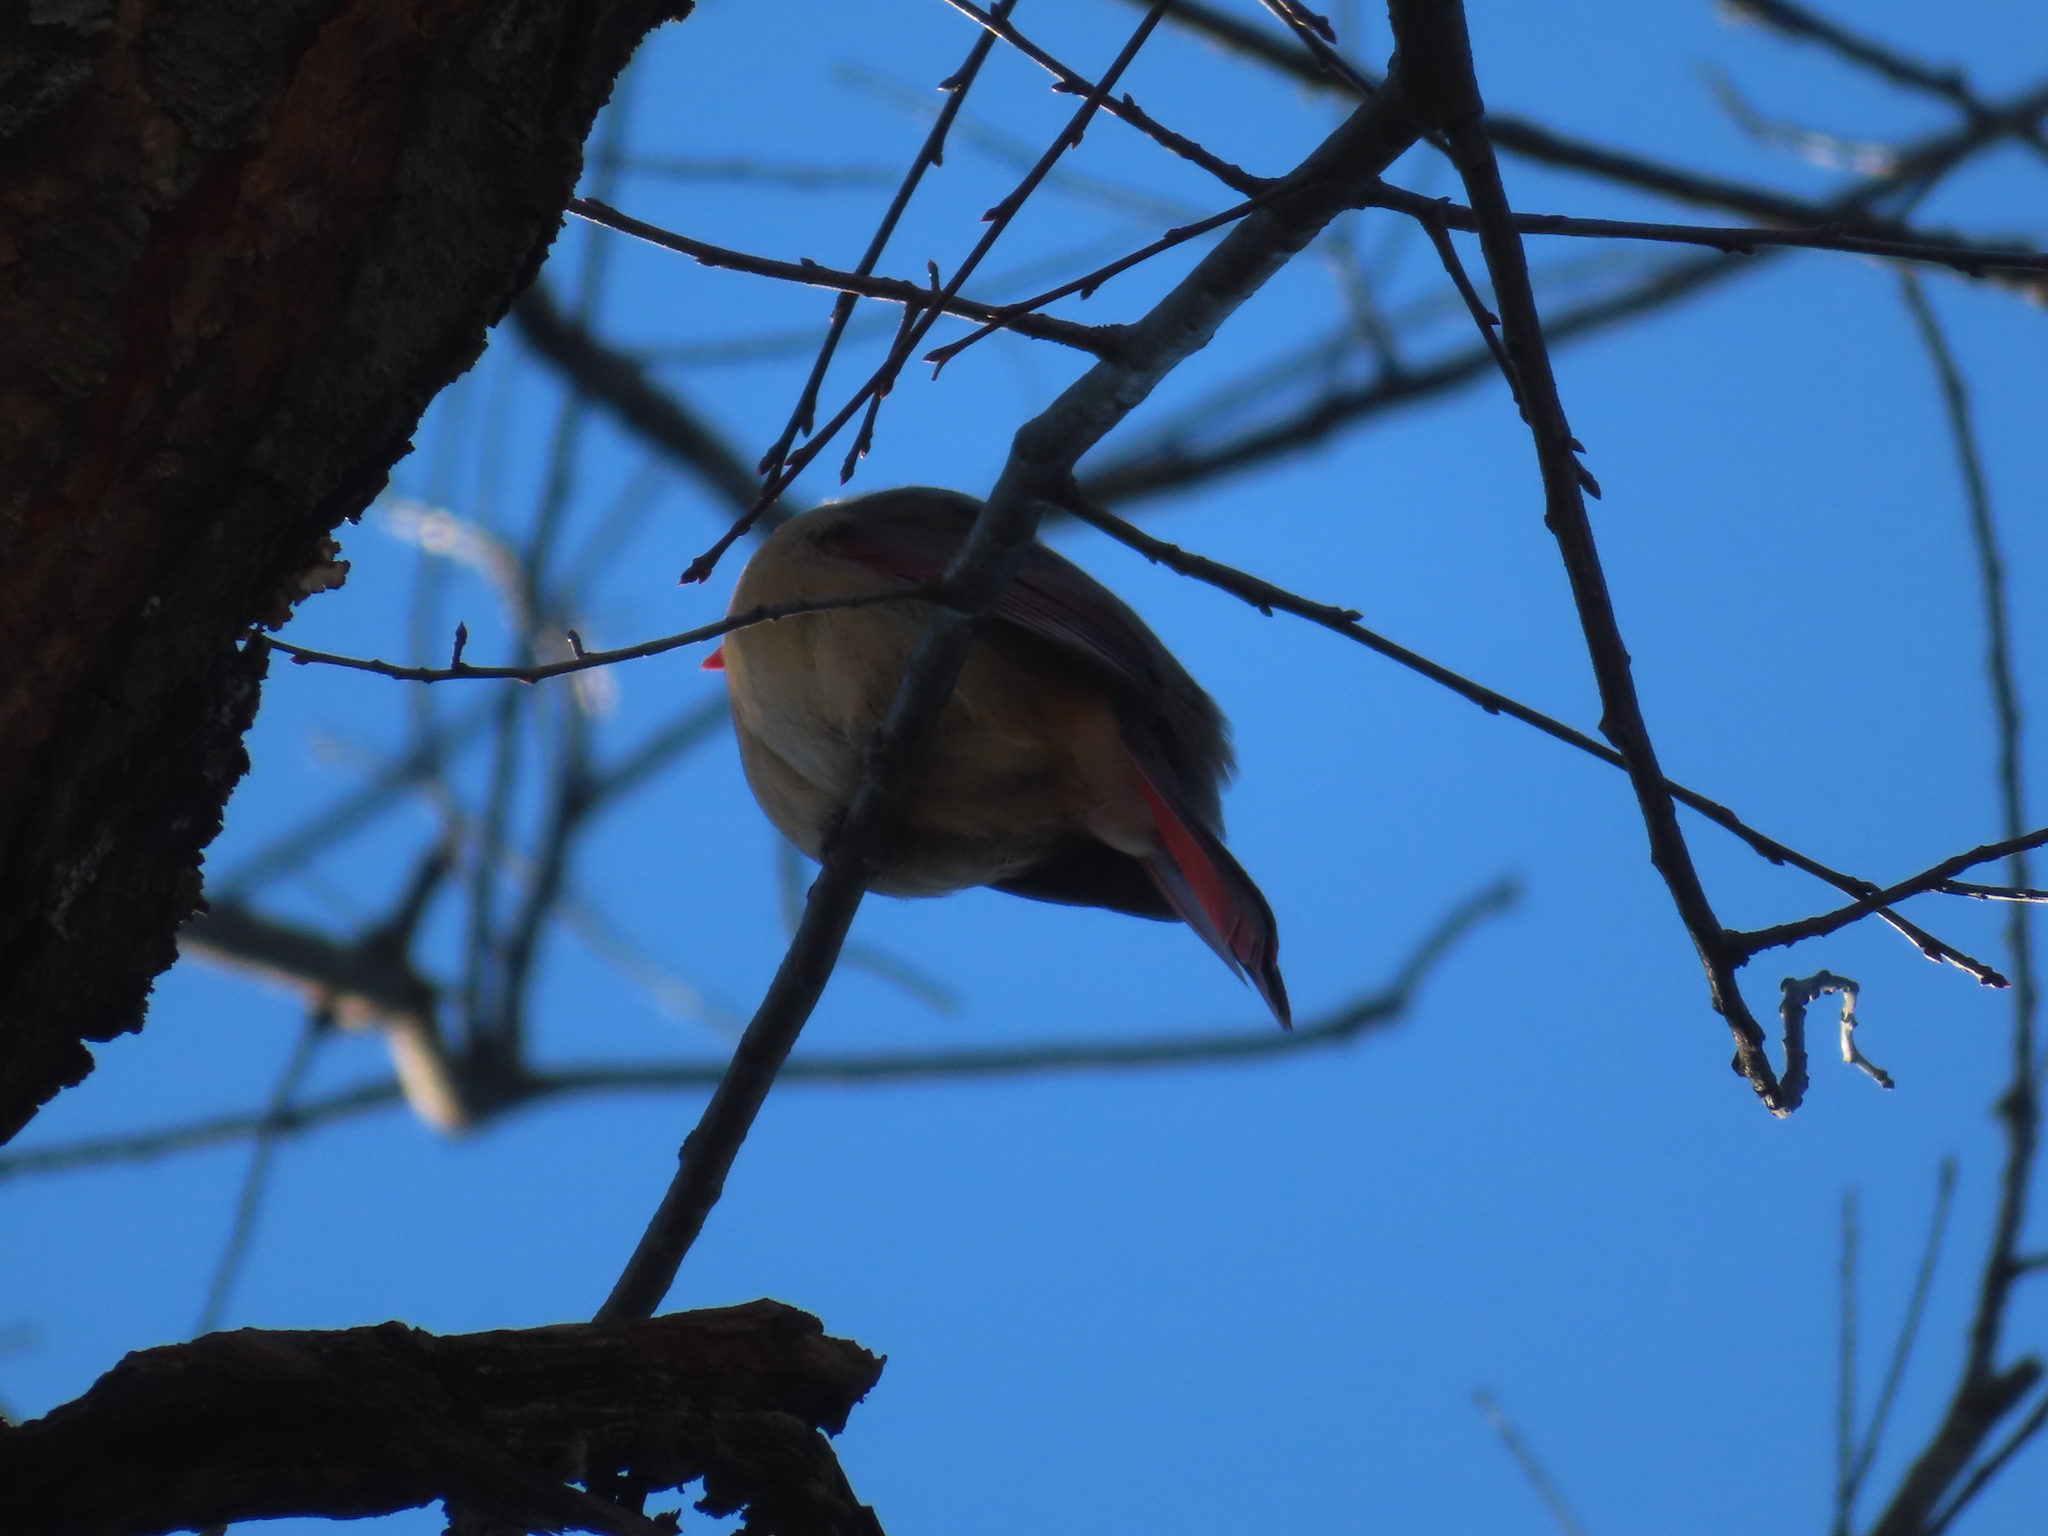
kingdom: Animalia
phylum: Chordata
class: Aves
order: Passeriformes
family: Cardinalidae
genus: Cardinalis
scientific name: Cardinalis cardinalis
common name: Northern cardinal
